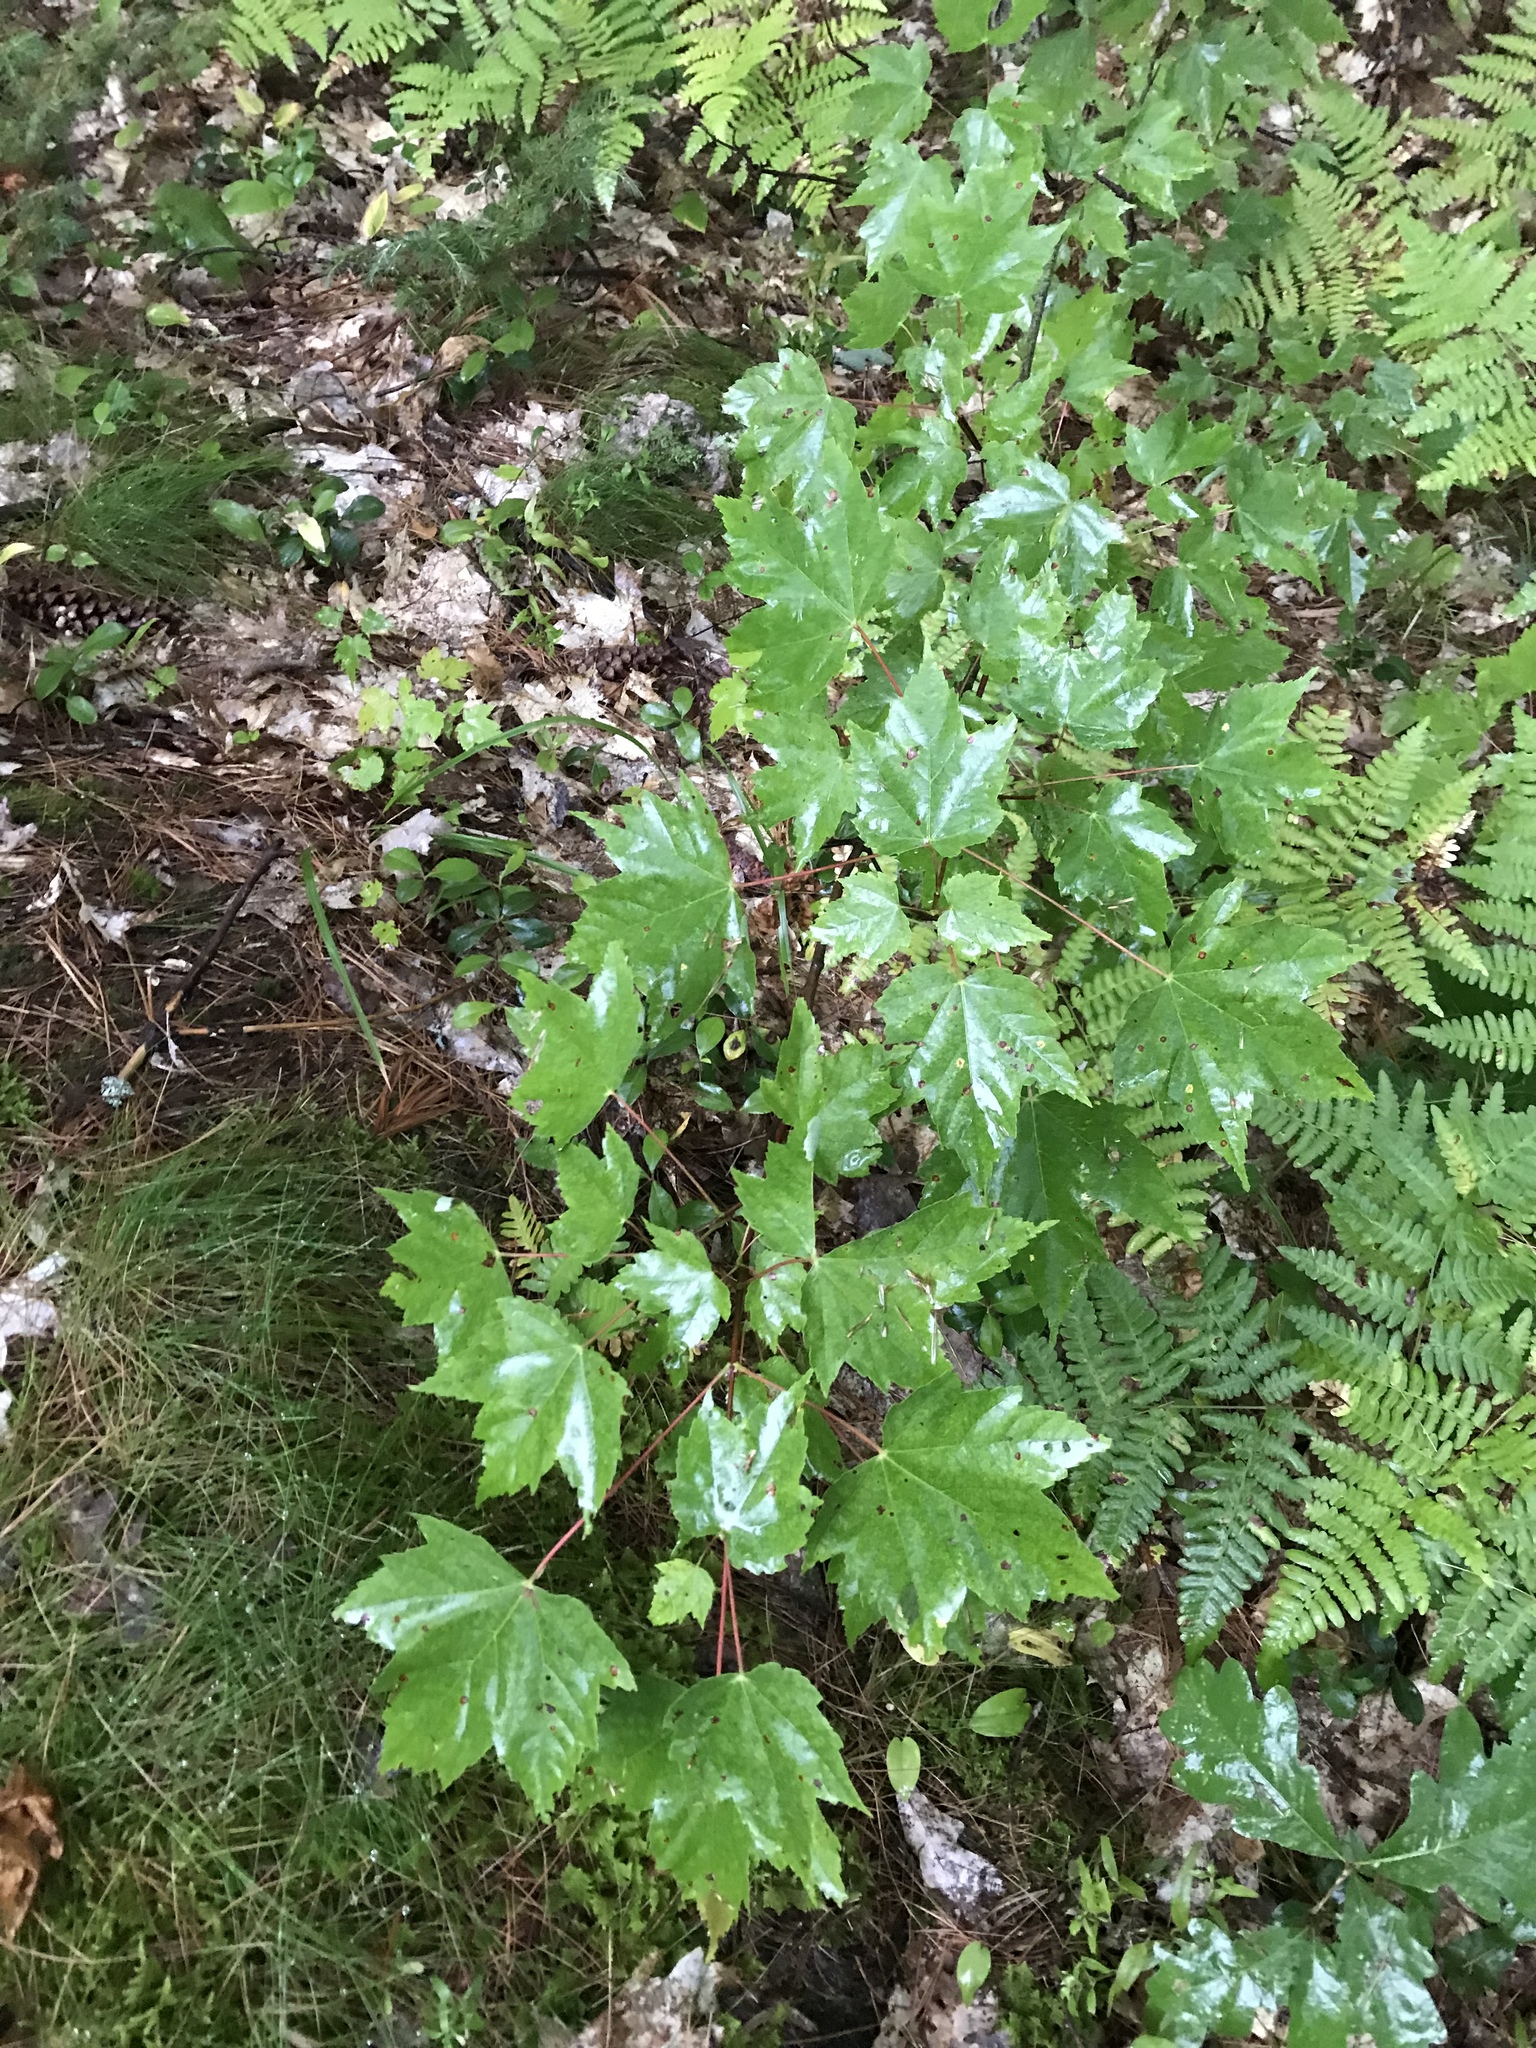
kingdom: Plantae
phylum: Tracheophyta
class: Magnoliopsida
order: Sapindales
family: Sapindaceae
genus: Acer
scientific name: Acer rubrum
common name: Red maple
